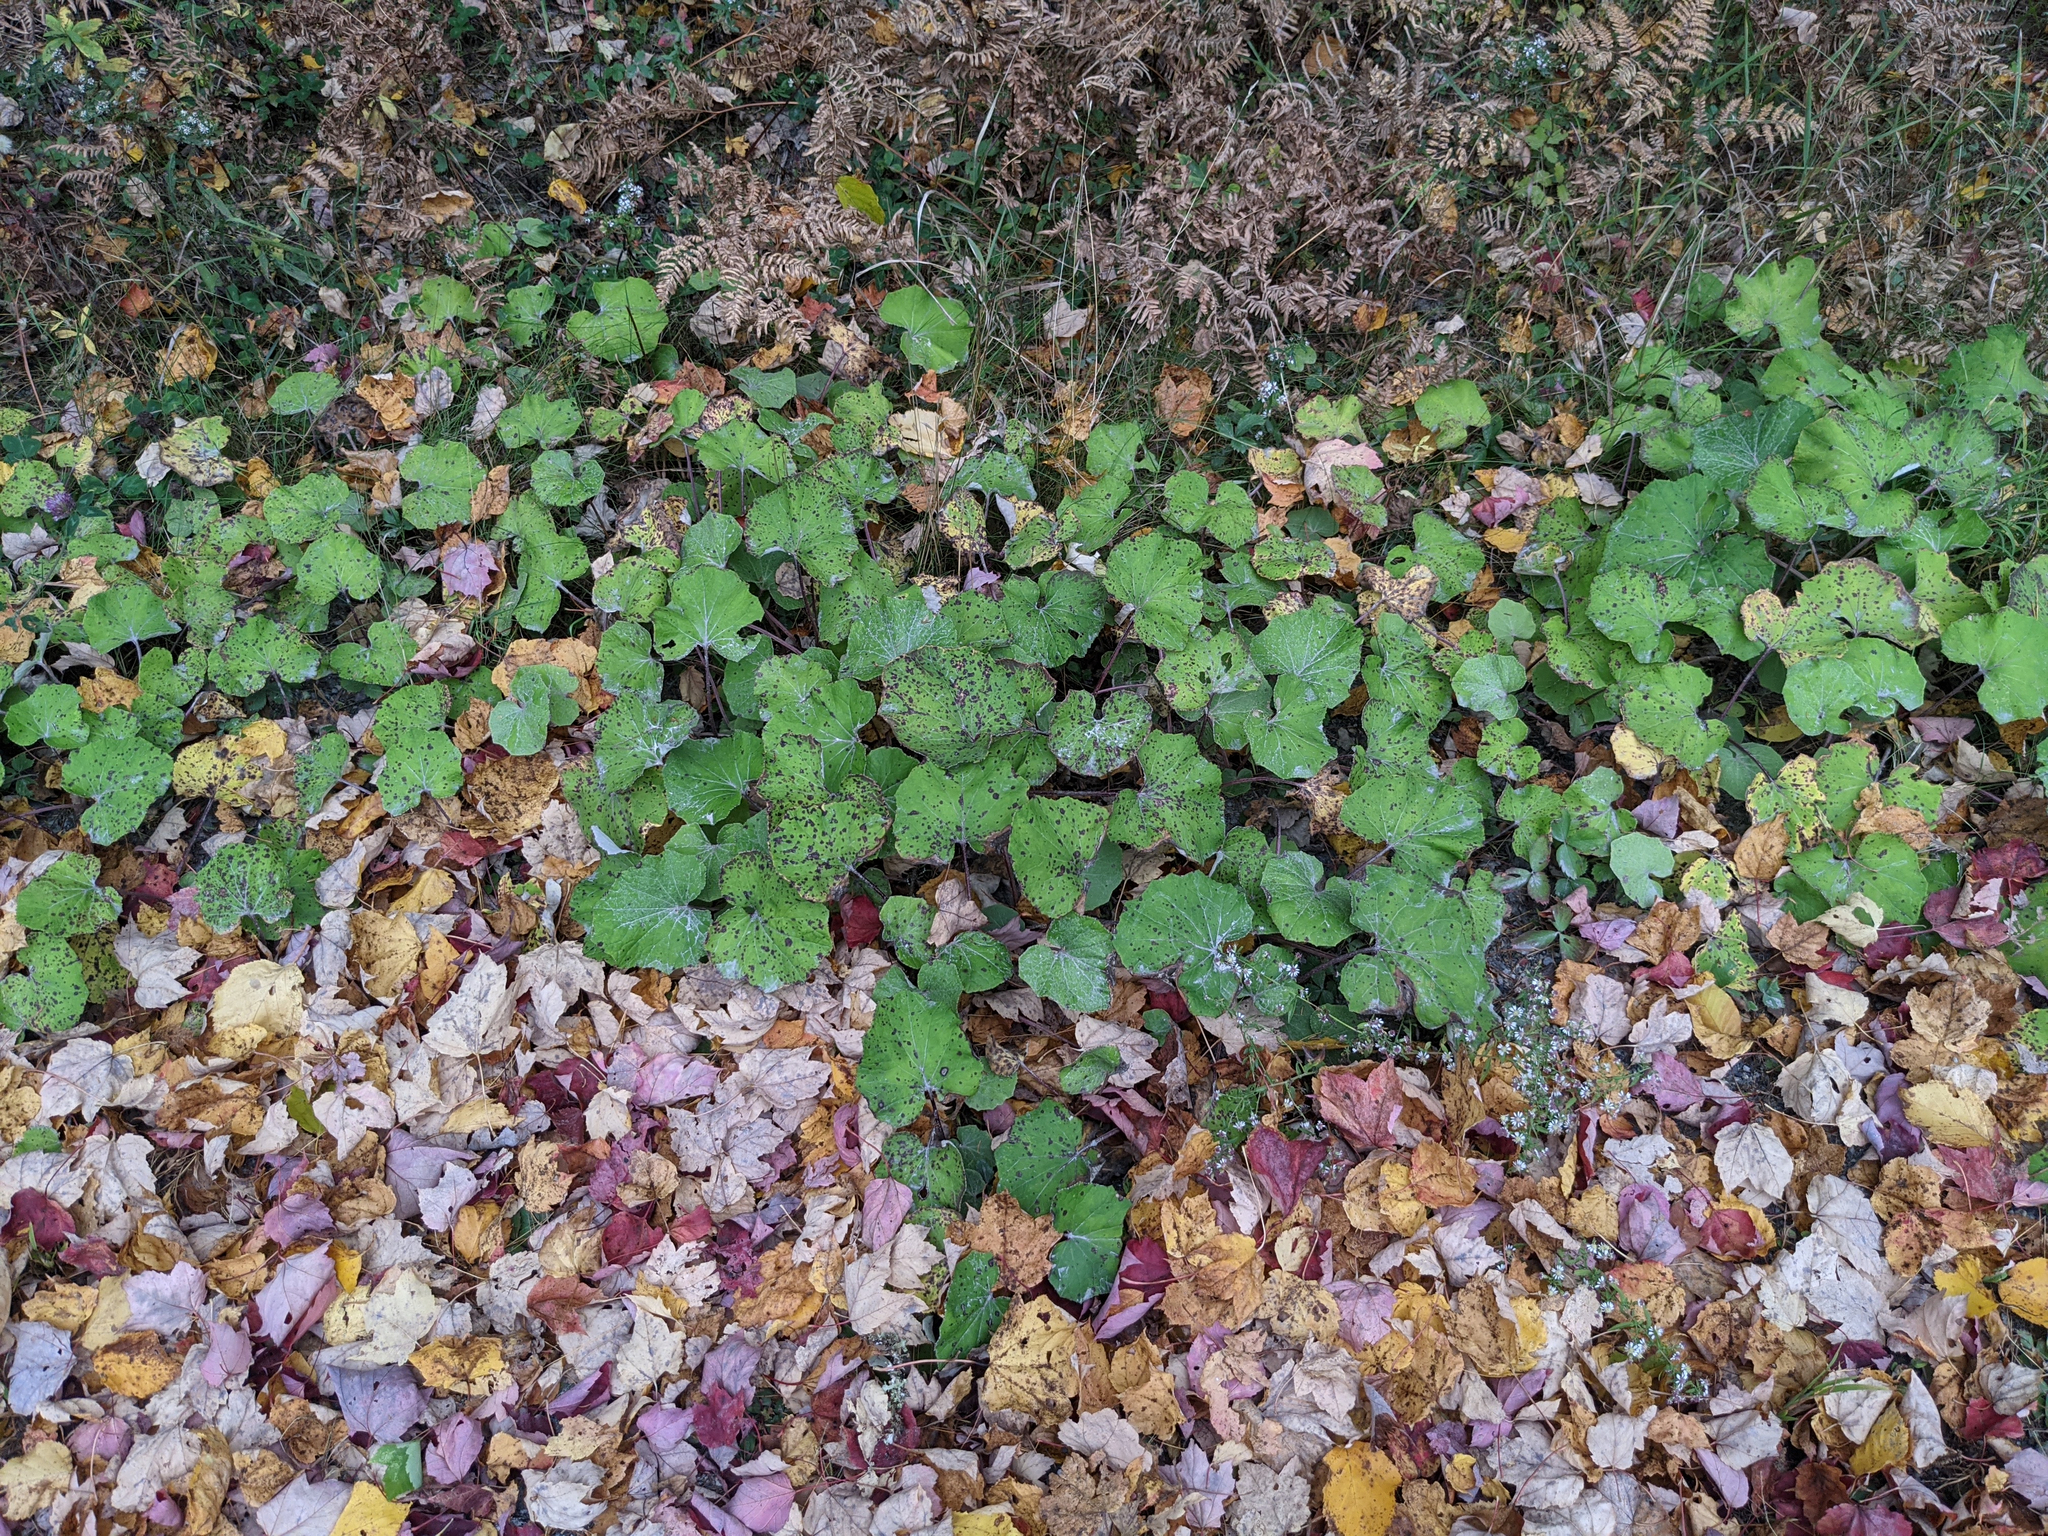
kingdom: Plantae
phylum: Tracheophyta
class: Magnoliopsida
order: Asterales
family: Asteraceae
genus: Tussilago
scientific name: Tussilago farfara
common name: Coltsfoot
